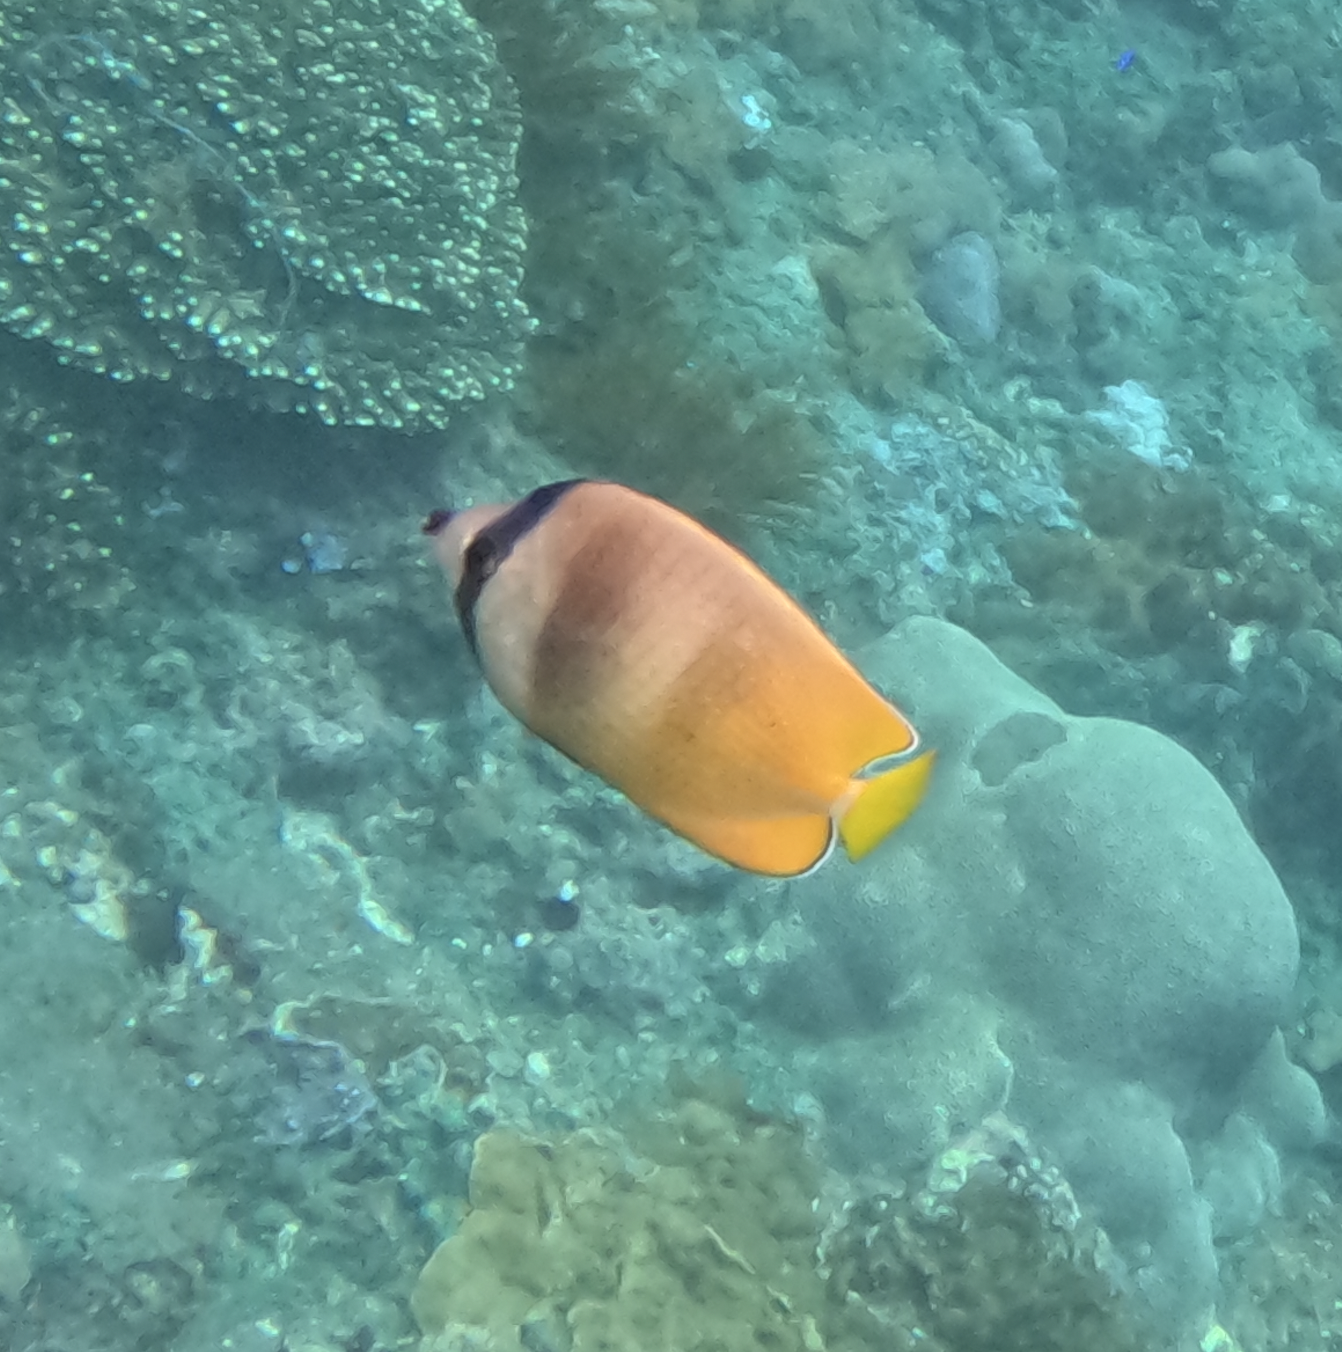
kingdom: Animalia
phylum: Chordata
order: Perciformes
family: Chaetodontidae
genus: Chaetodon
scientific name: Chaetodon kleinii
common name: Klein's butterflyfish
